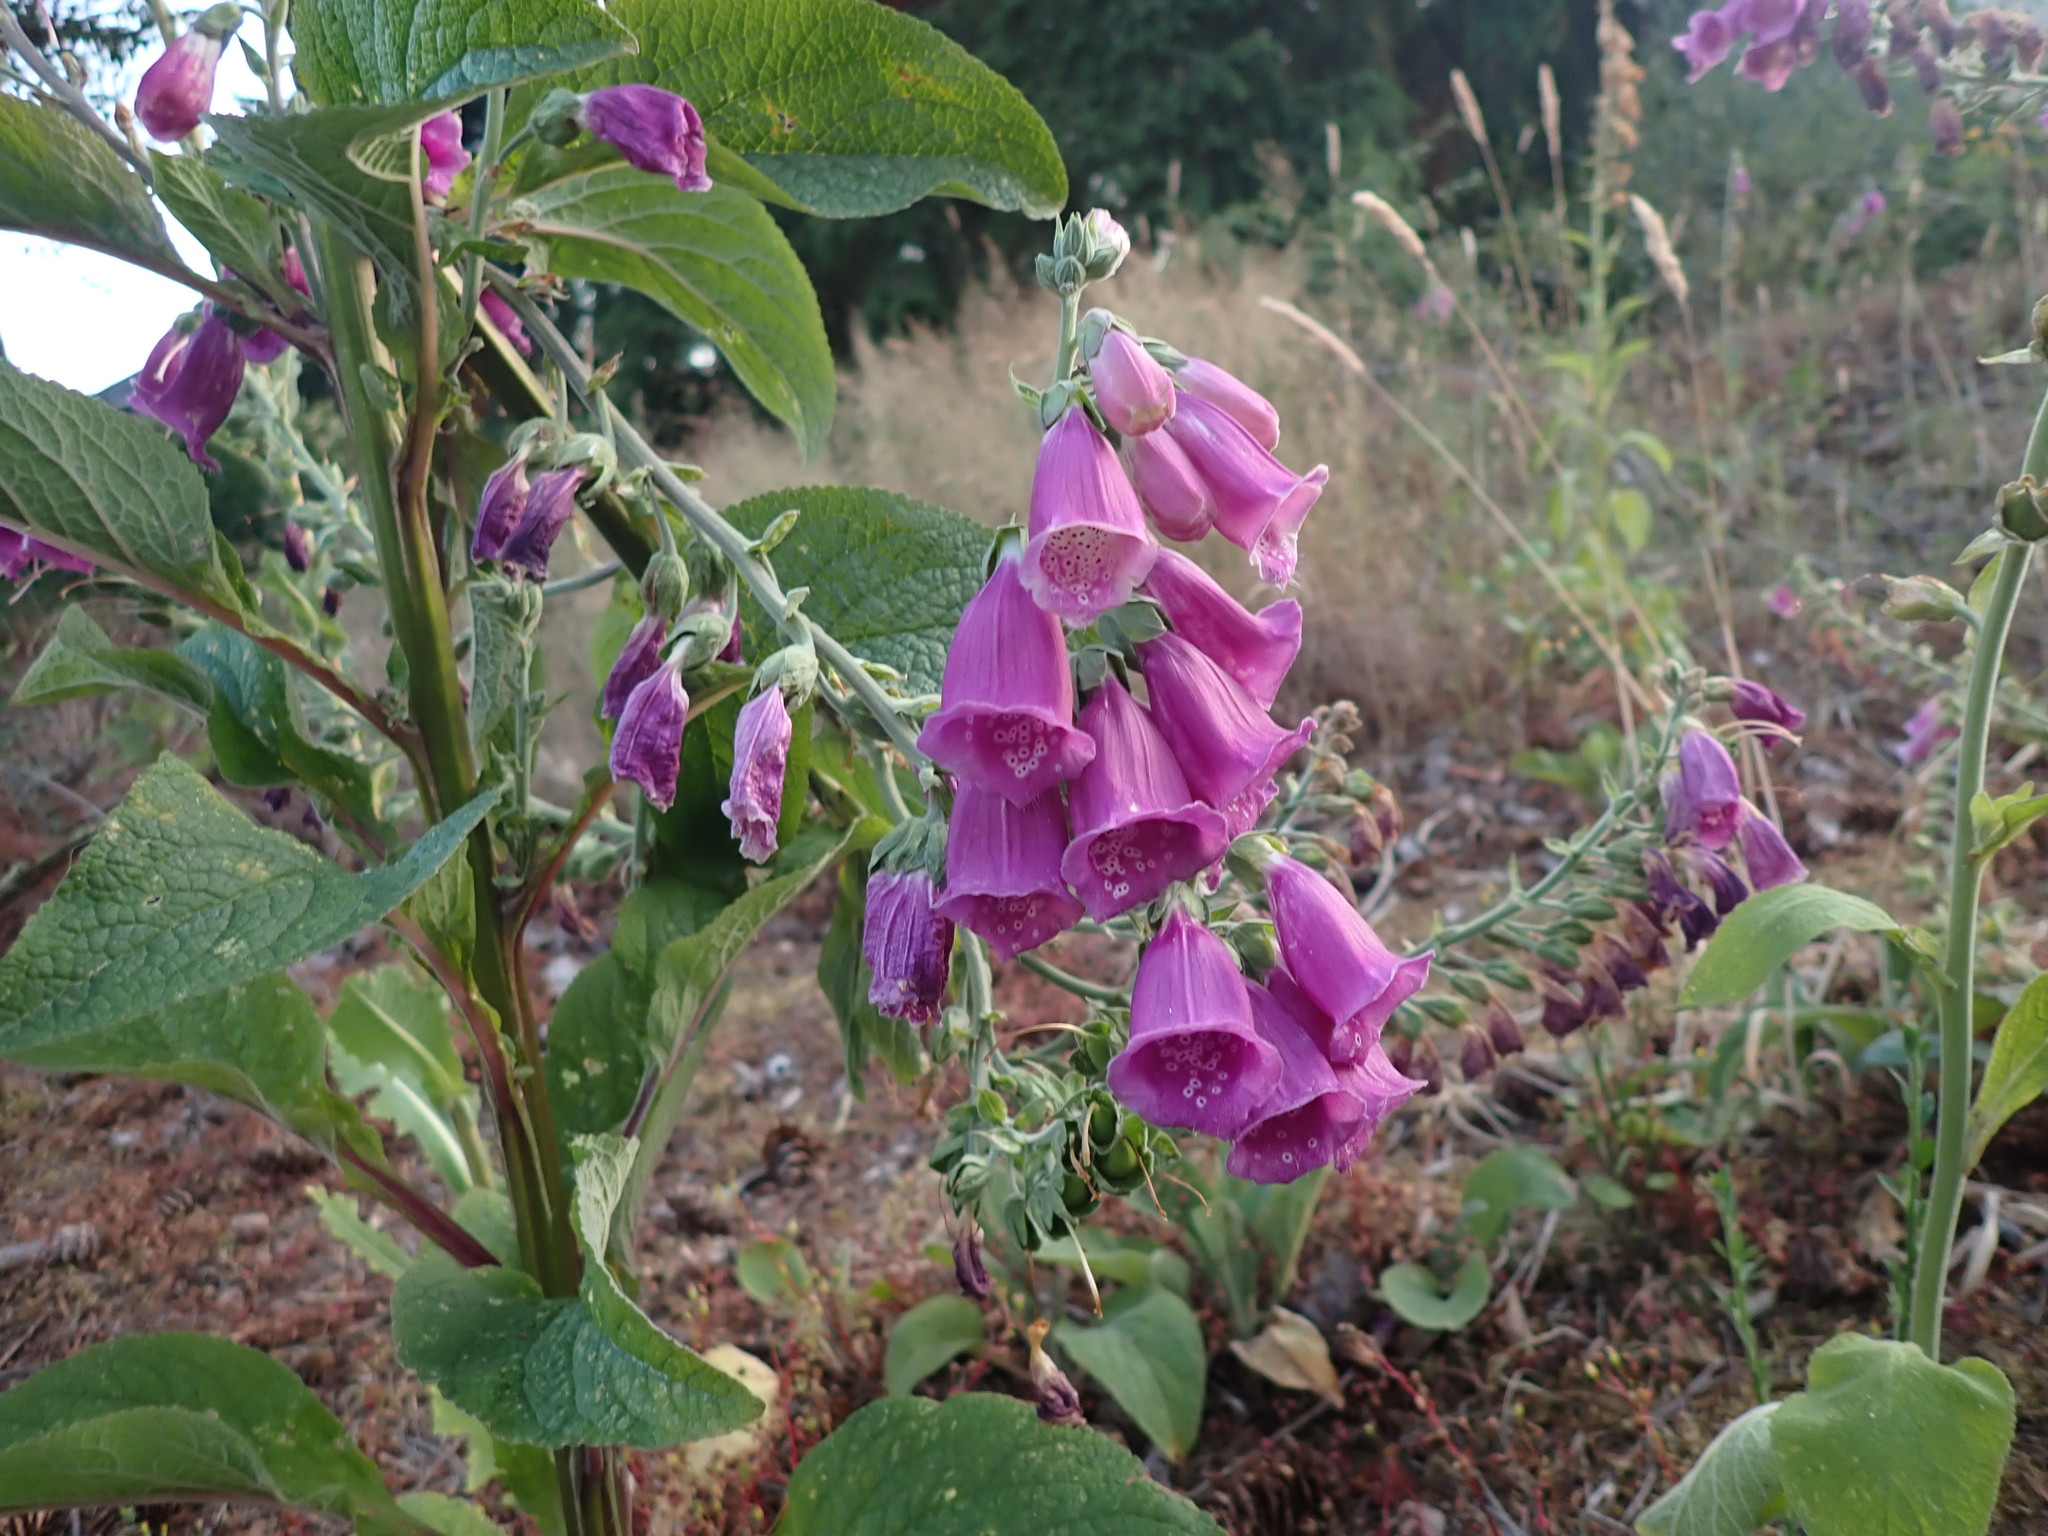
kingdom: Plantae
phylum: Tracheophyta
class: Magnoliopsida
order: Lamiales
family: Plantaginaceae
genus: Digitalis
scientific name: Digitalis purpurea
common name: Foxglove
